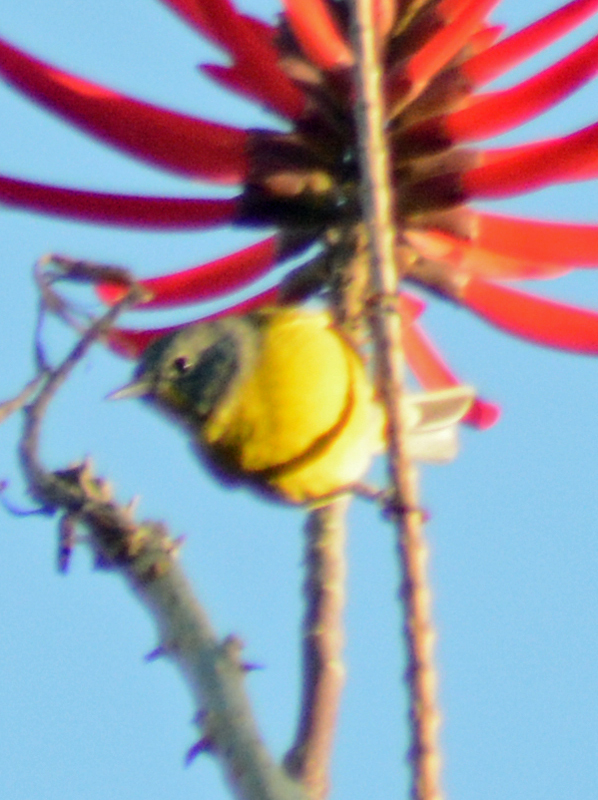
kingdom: Animalia
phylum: Chordata
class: Aves
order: Passeriformes
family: Parulidae
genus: Leiothlypis
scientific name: Leiothlypis ruficapilla
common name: Nashville warbler
